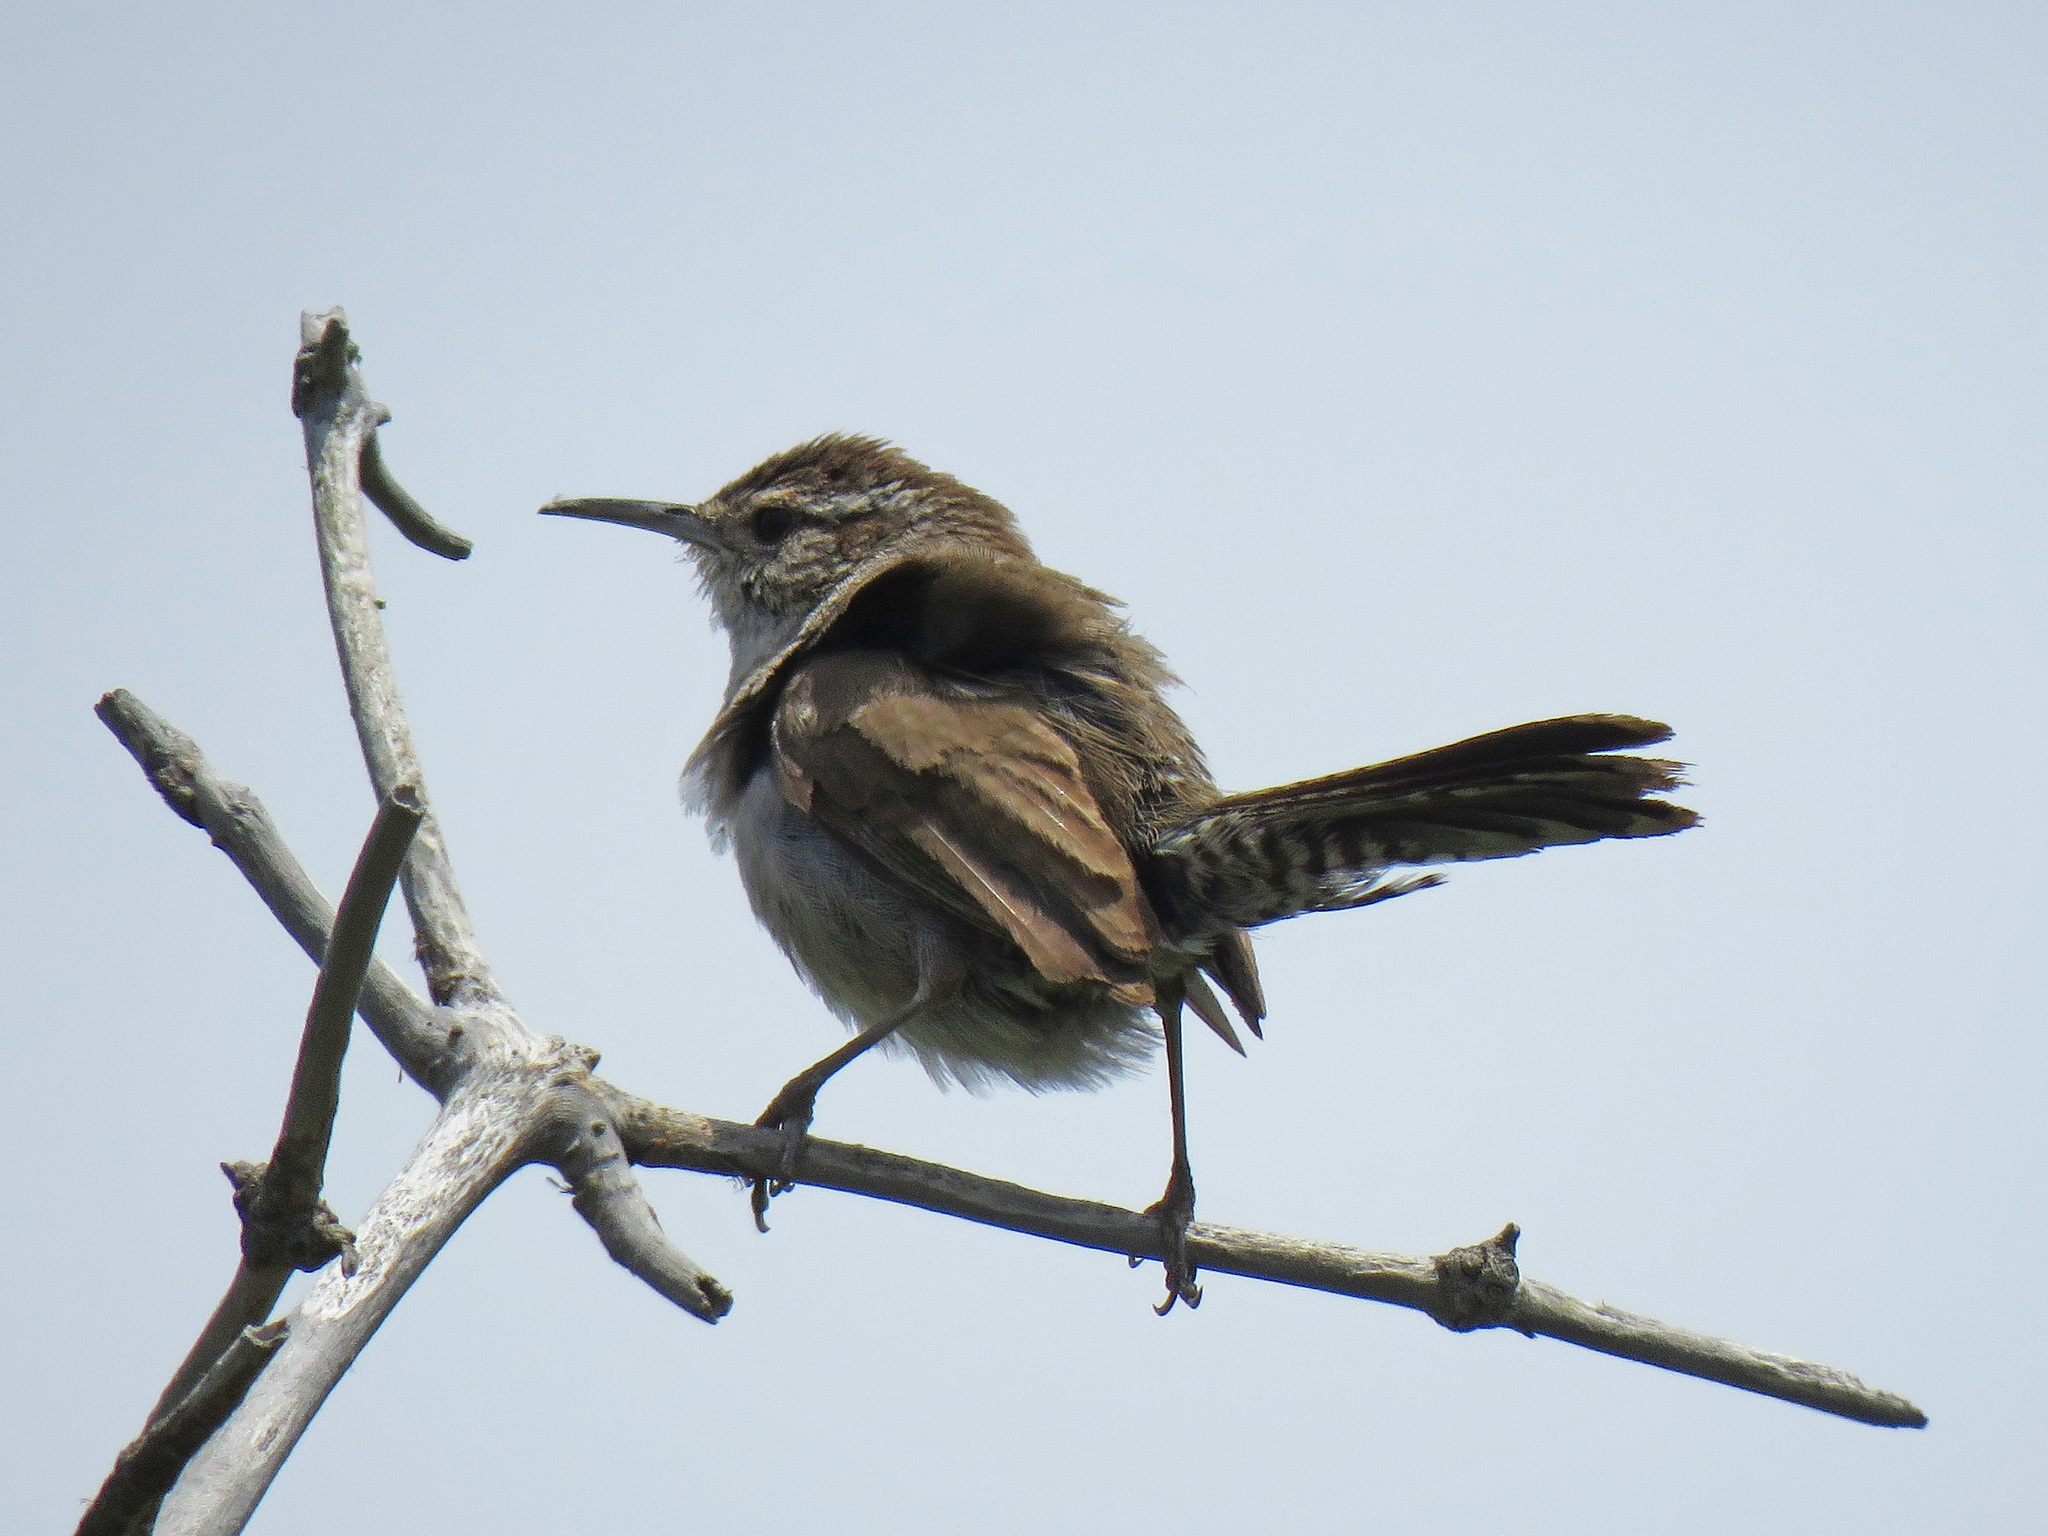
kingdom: Animalia
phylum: Chordata
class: Aves
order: Passeriformes
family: Troglodytidae
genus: Thryomanes
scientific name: Thryomanes bewickii
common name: Bewick's wren
